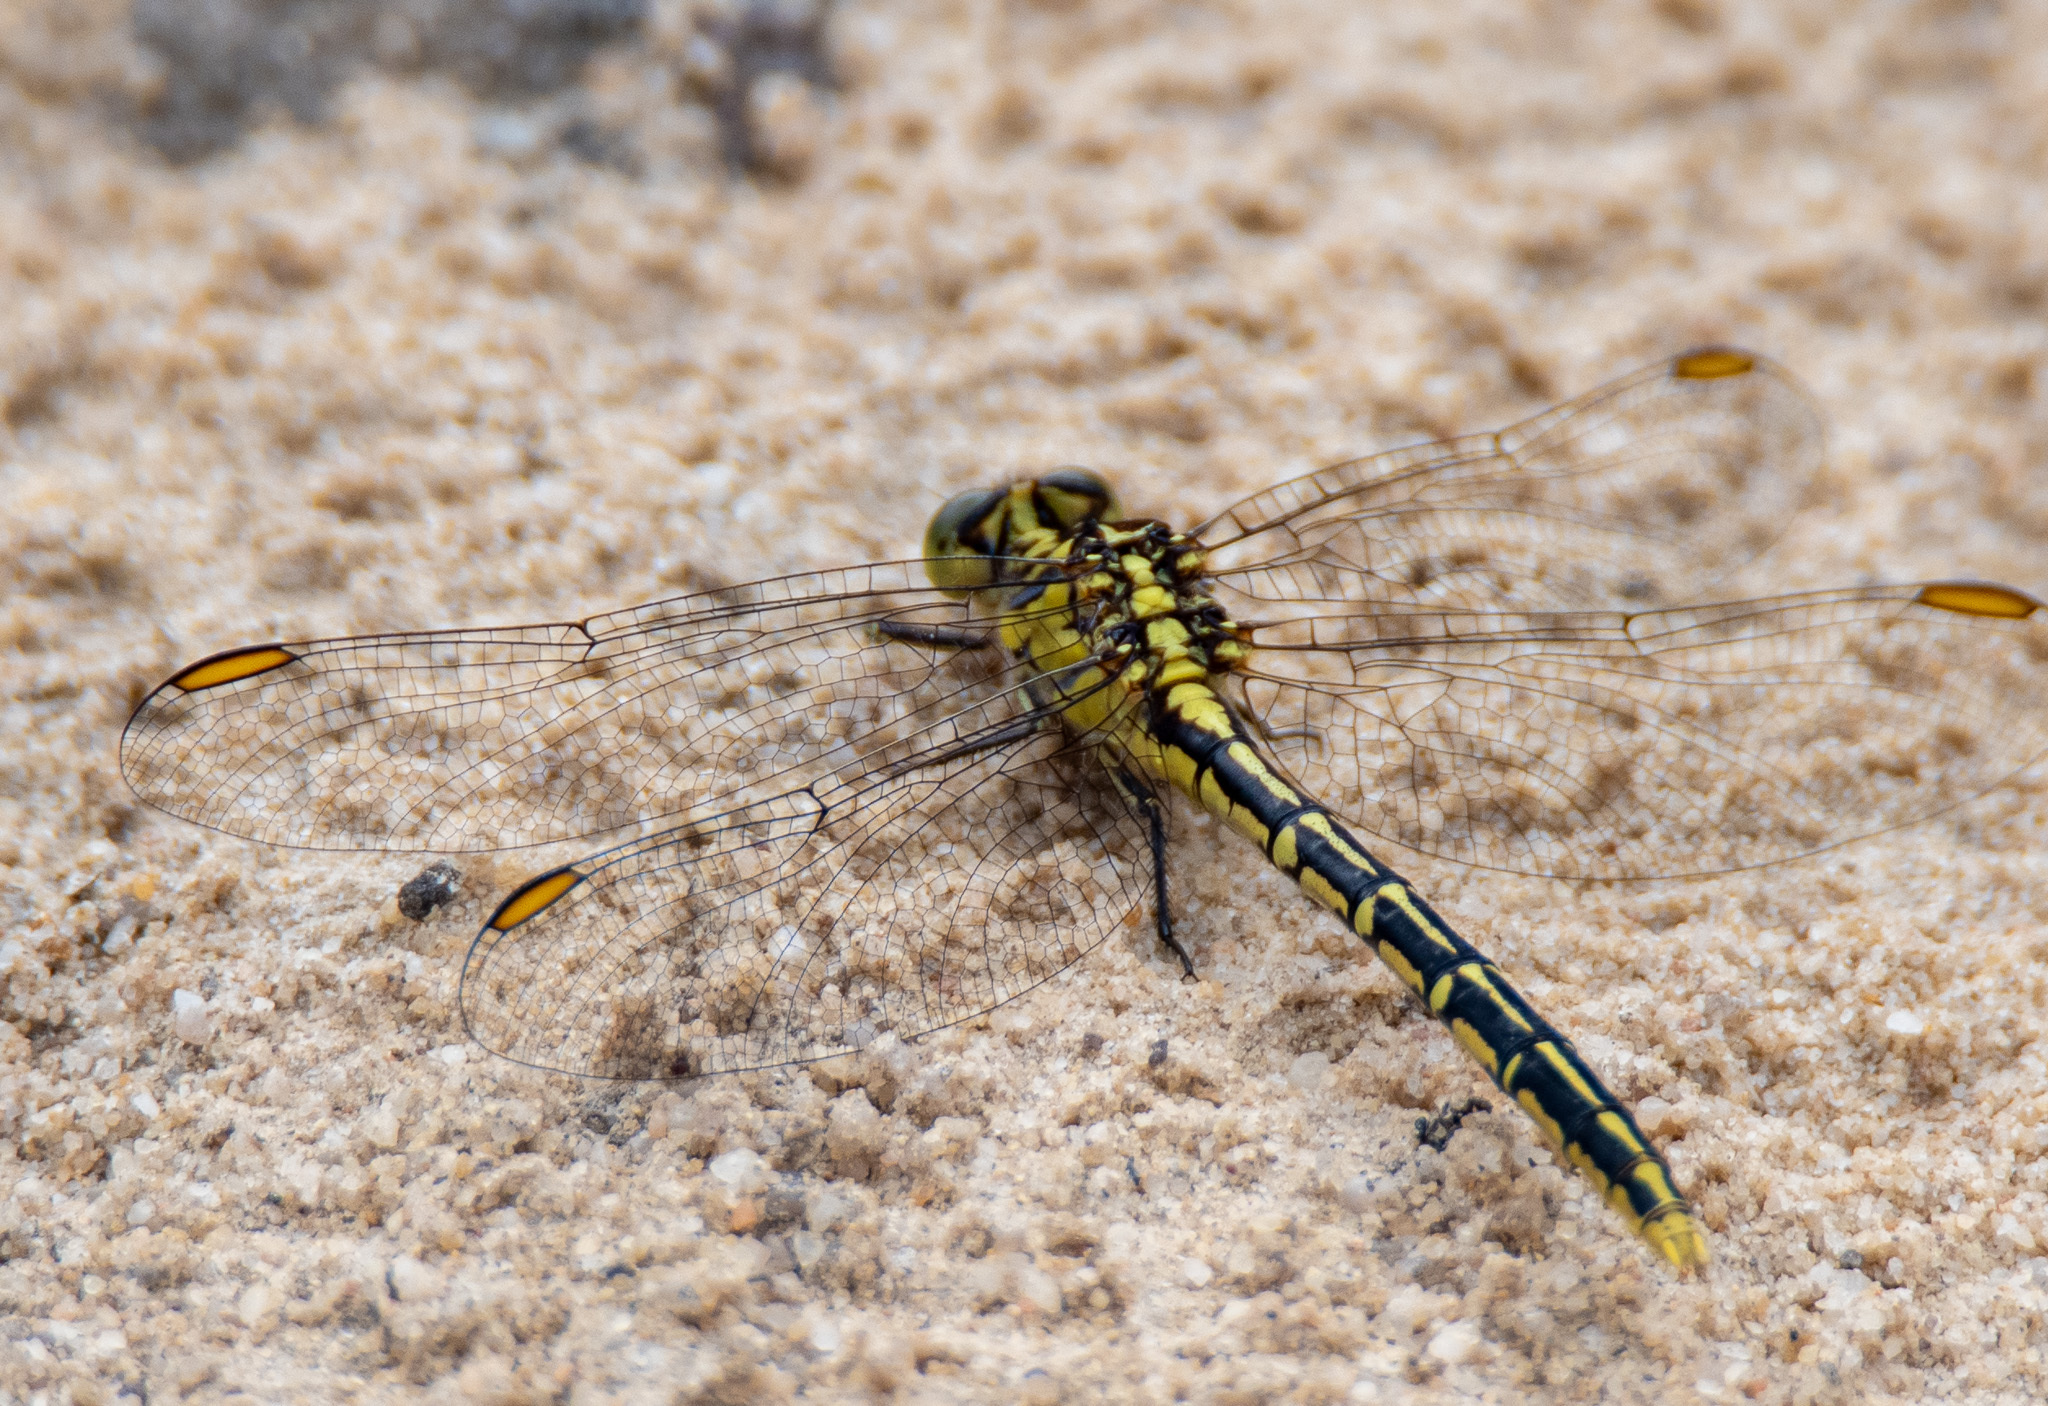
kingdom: Animalia
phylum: Arthropoda
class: Insecta
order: Odonata
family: Gomphidae
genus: Austrogomphus
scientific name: Austrogomphus guerini
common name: Yellow-striped hunter
